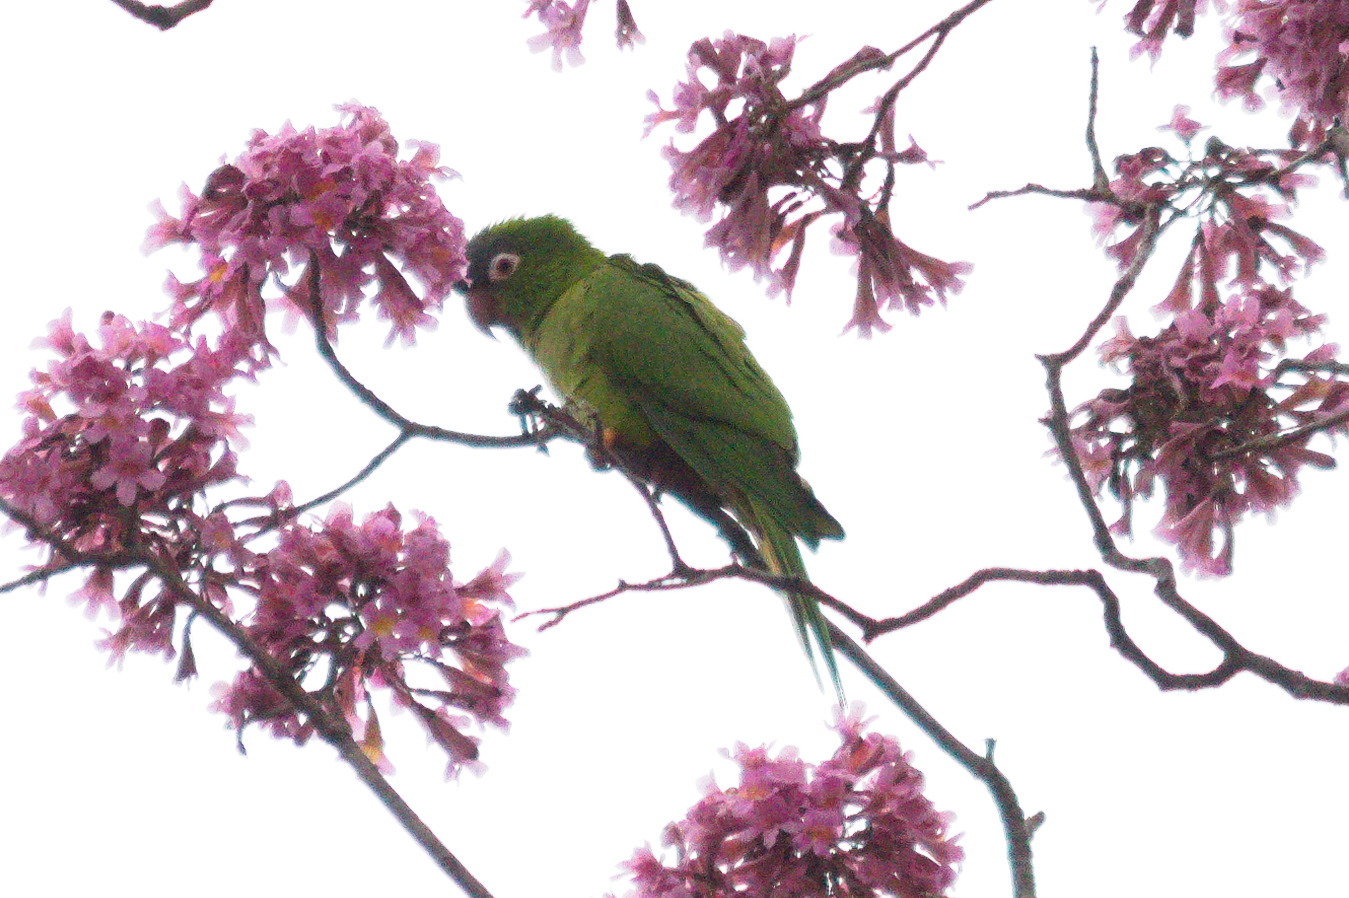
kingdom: Animalia
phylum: Chordata
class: Aves
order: Psittaciformes
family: Psittacidae
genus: Aratinga
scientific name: Aratinga acuticaudata
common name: Blue-crowned parakeet
